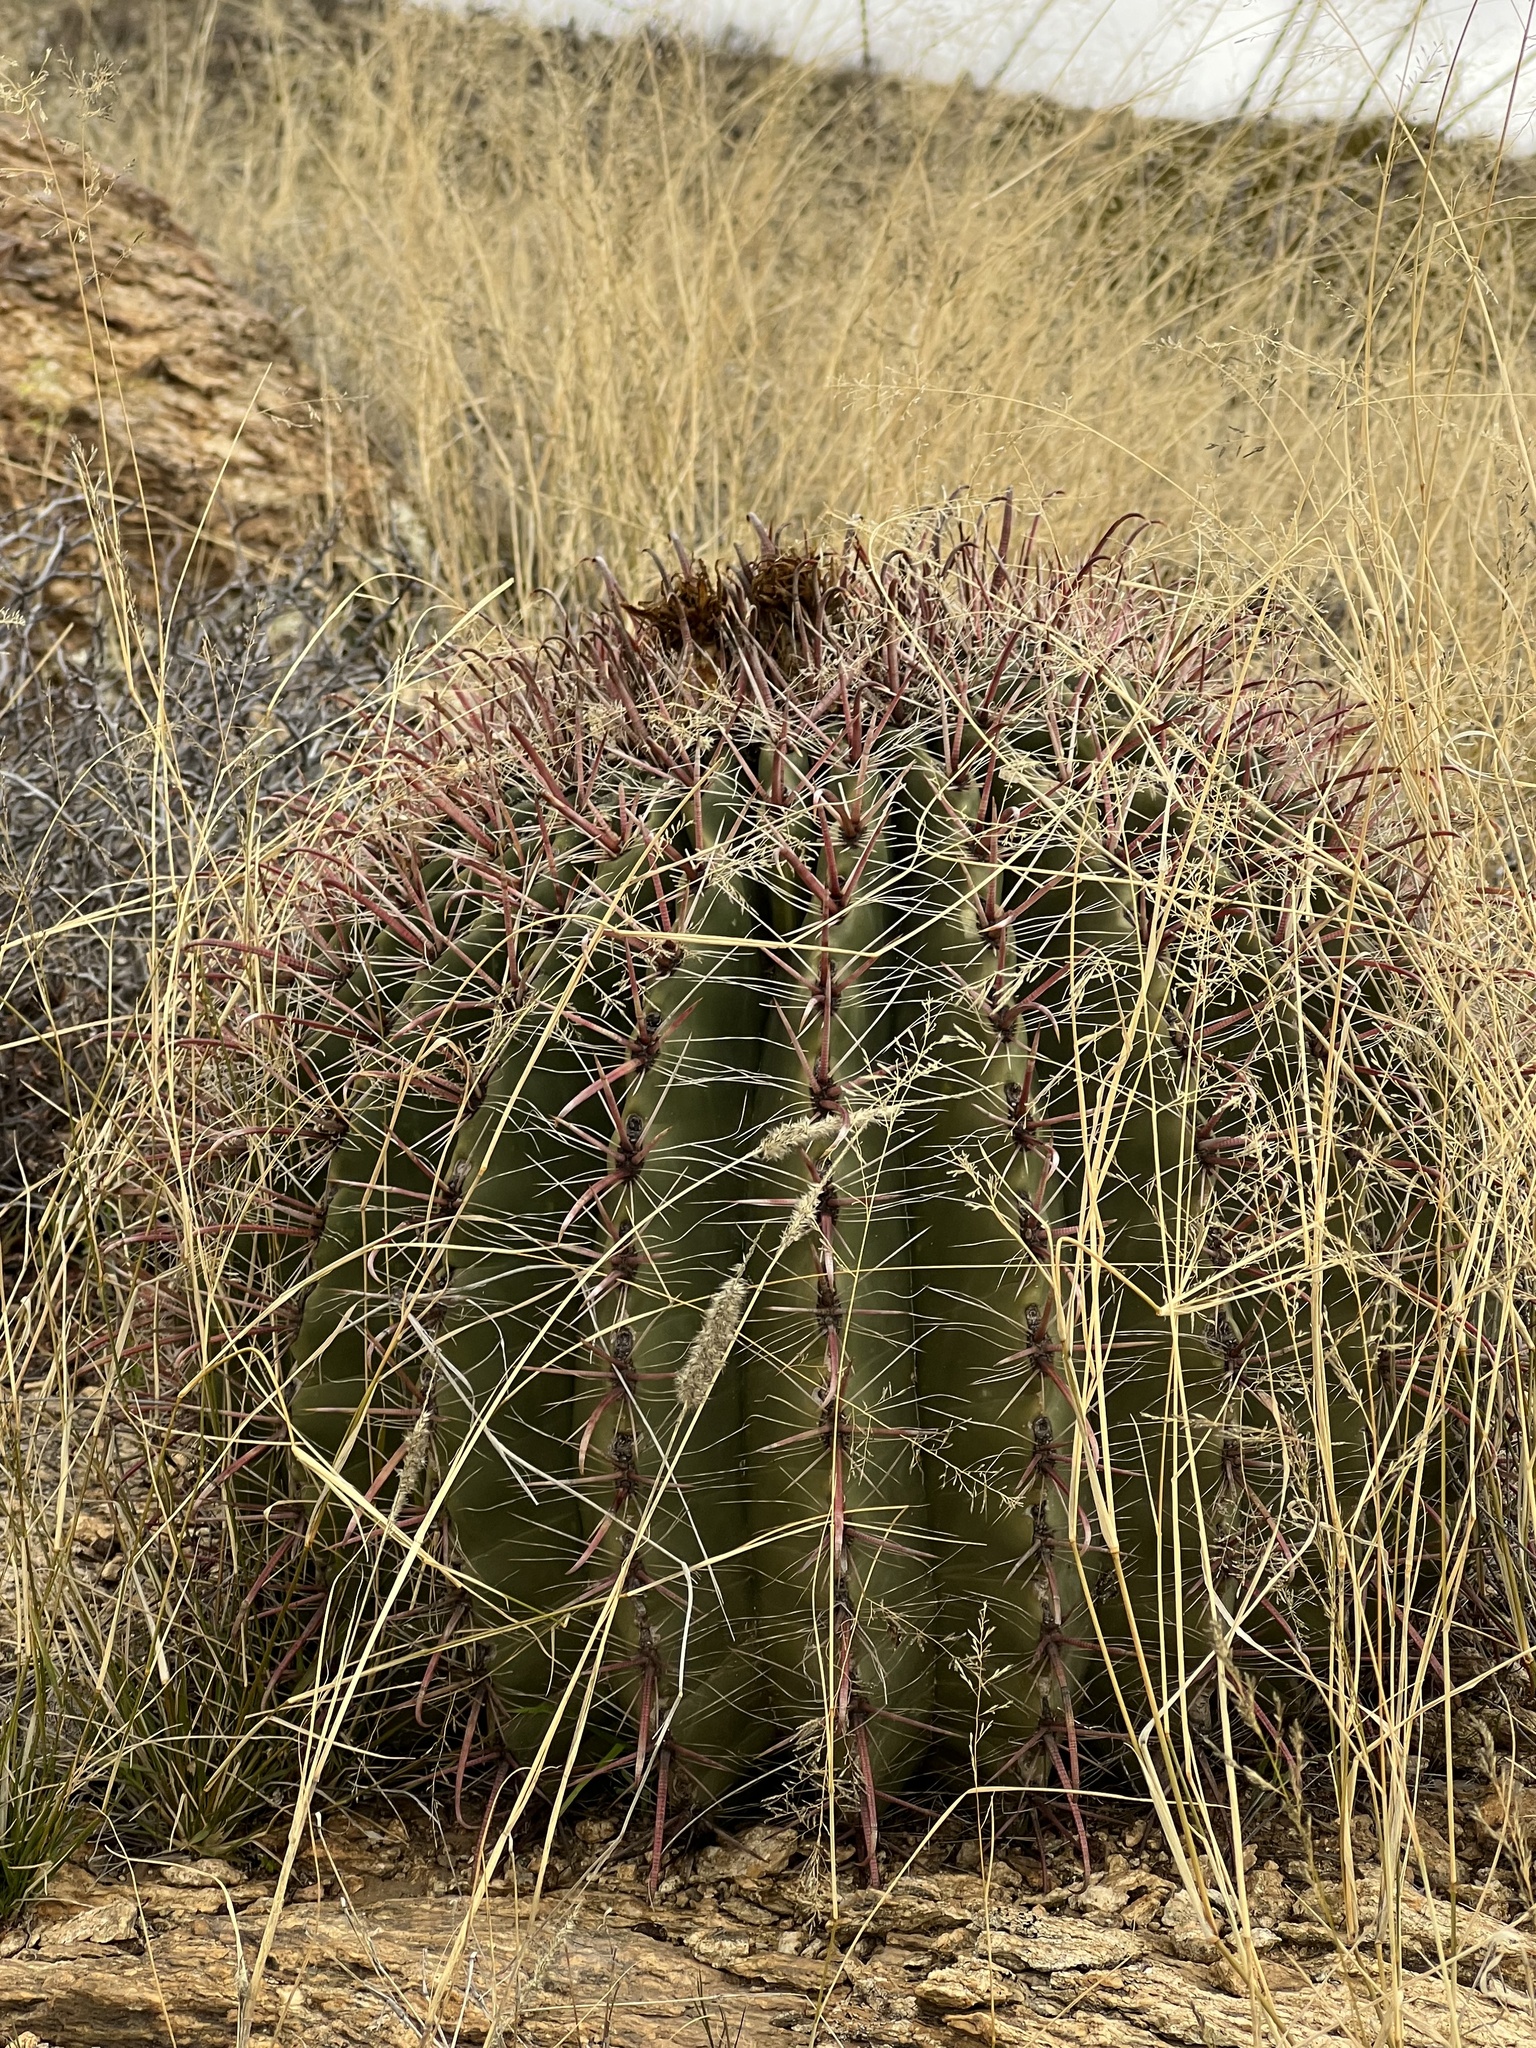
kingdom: Plantae
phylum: Tracheophyta
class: Magnoliopsida
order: Caryophyllales
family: Cactaceae
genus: Ferocactus
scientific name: Ferocactus wislizeni
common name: Candy barrel cactus
